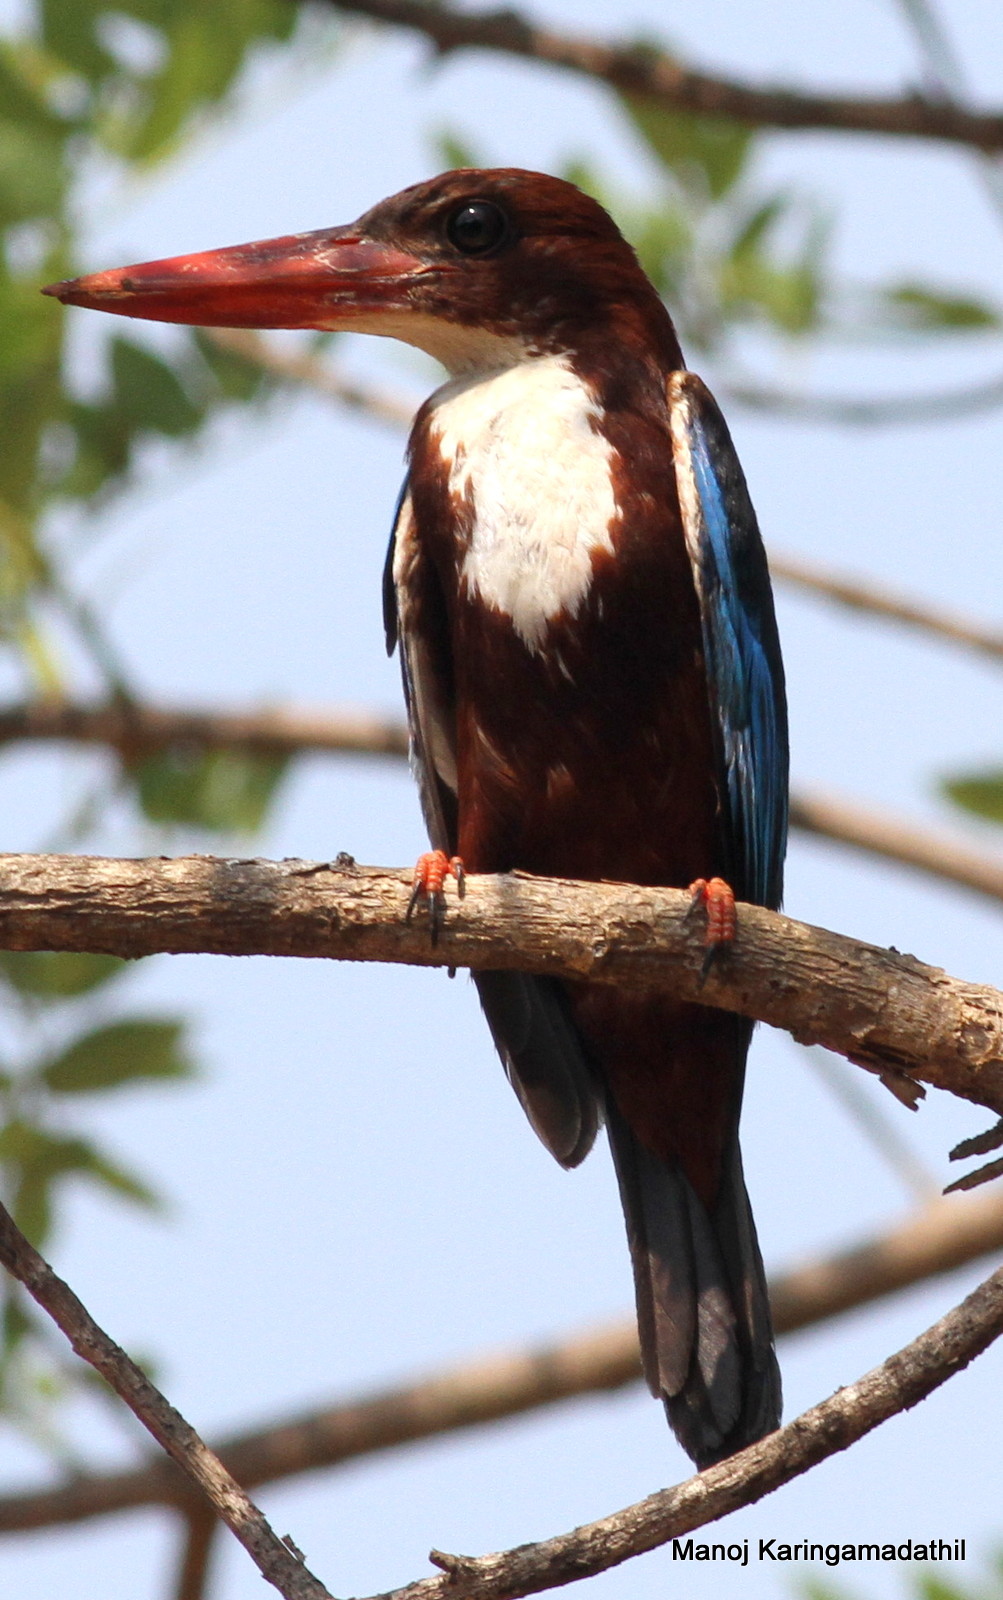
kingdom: Animalia
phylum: Chordata
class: Aves
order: Coraciiformes
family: Alcedinidae
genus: Halcyon
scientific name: Halcyon smyrnensis
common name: White-throated kingfisher
